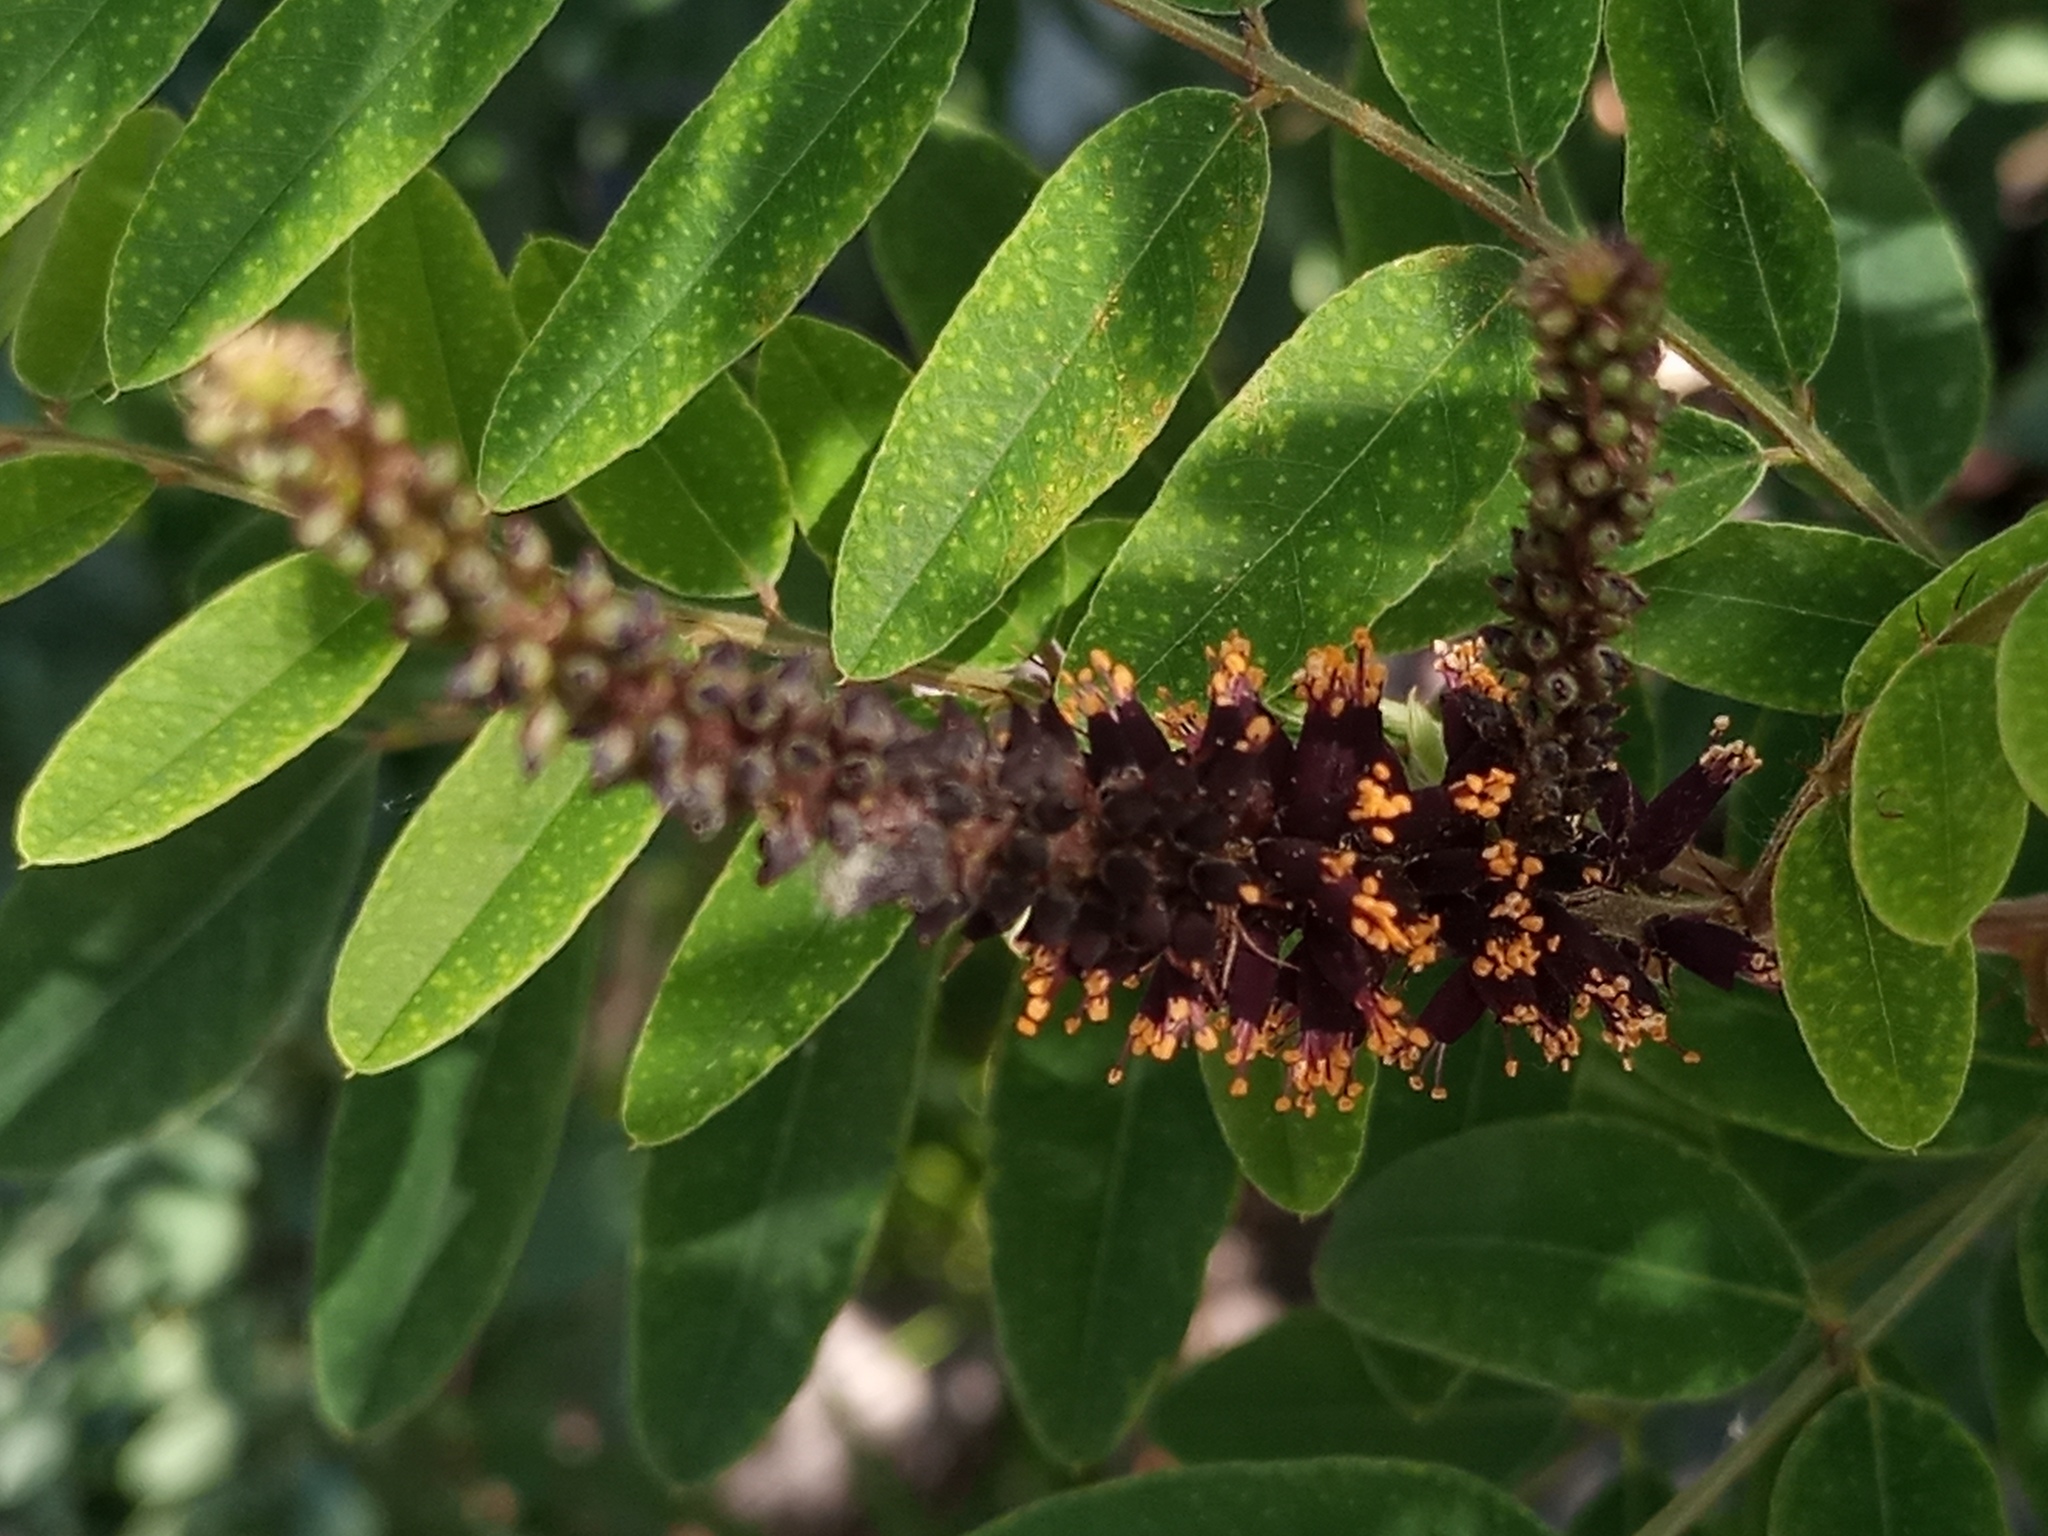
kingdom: Plantae
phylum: Tracheophyta
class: Magnoliopsida
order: Fabales
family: Fabaceae
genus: Amorpha
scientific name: Amorpha fruticosa
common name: False indigo
